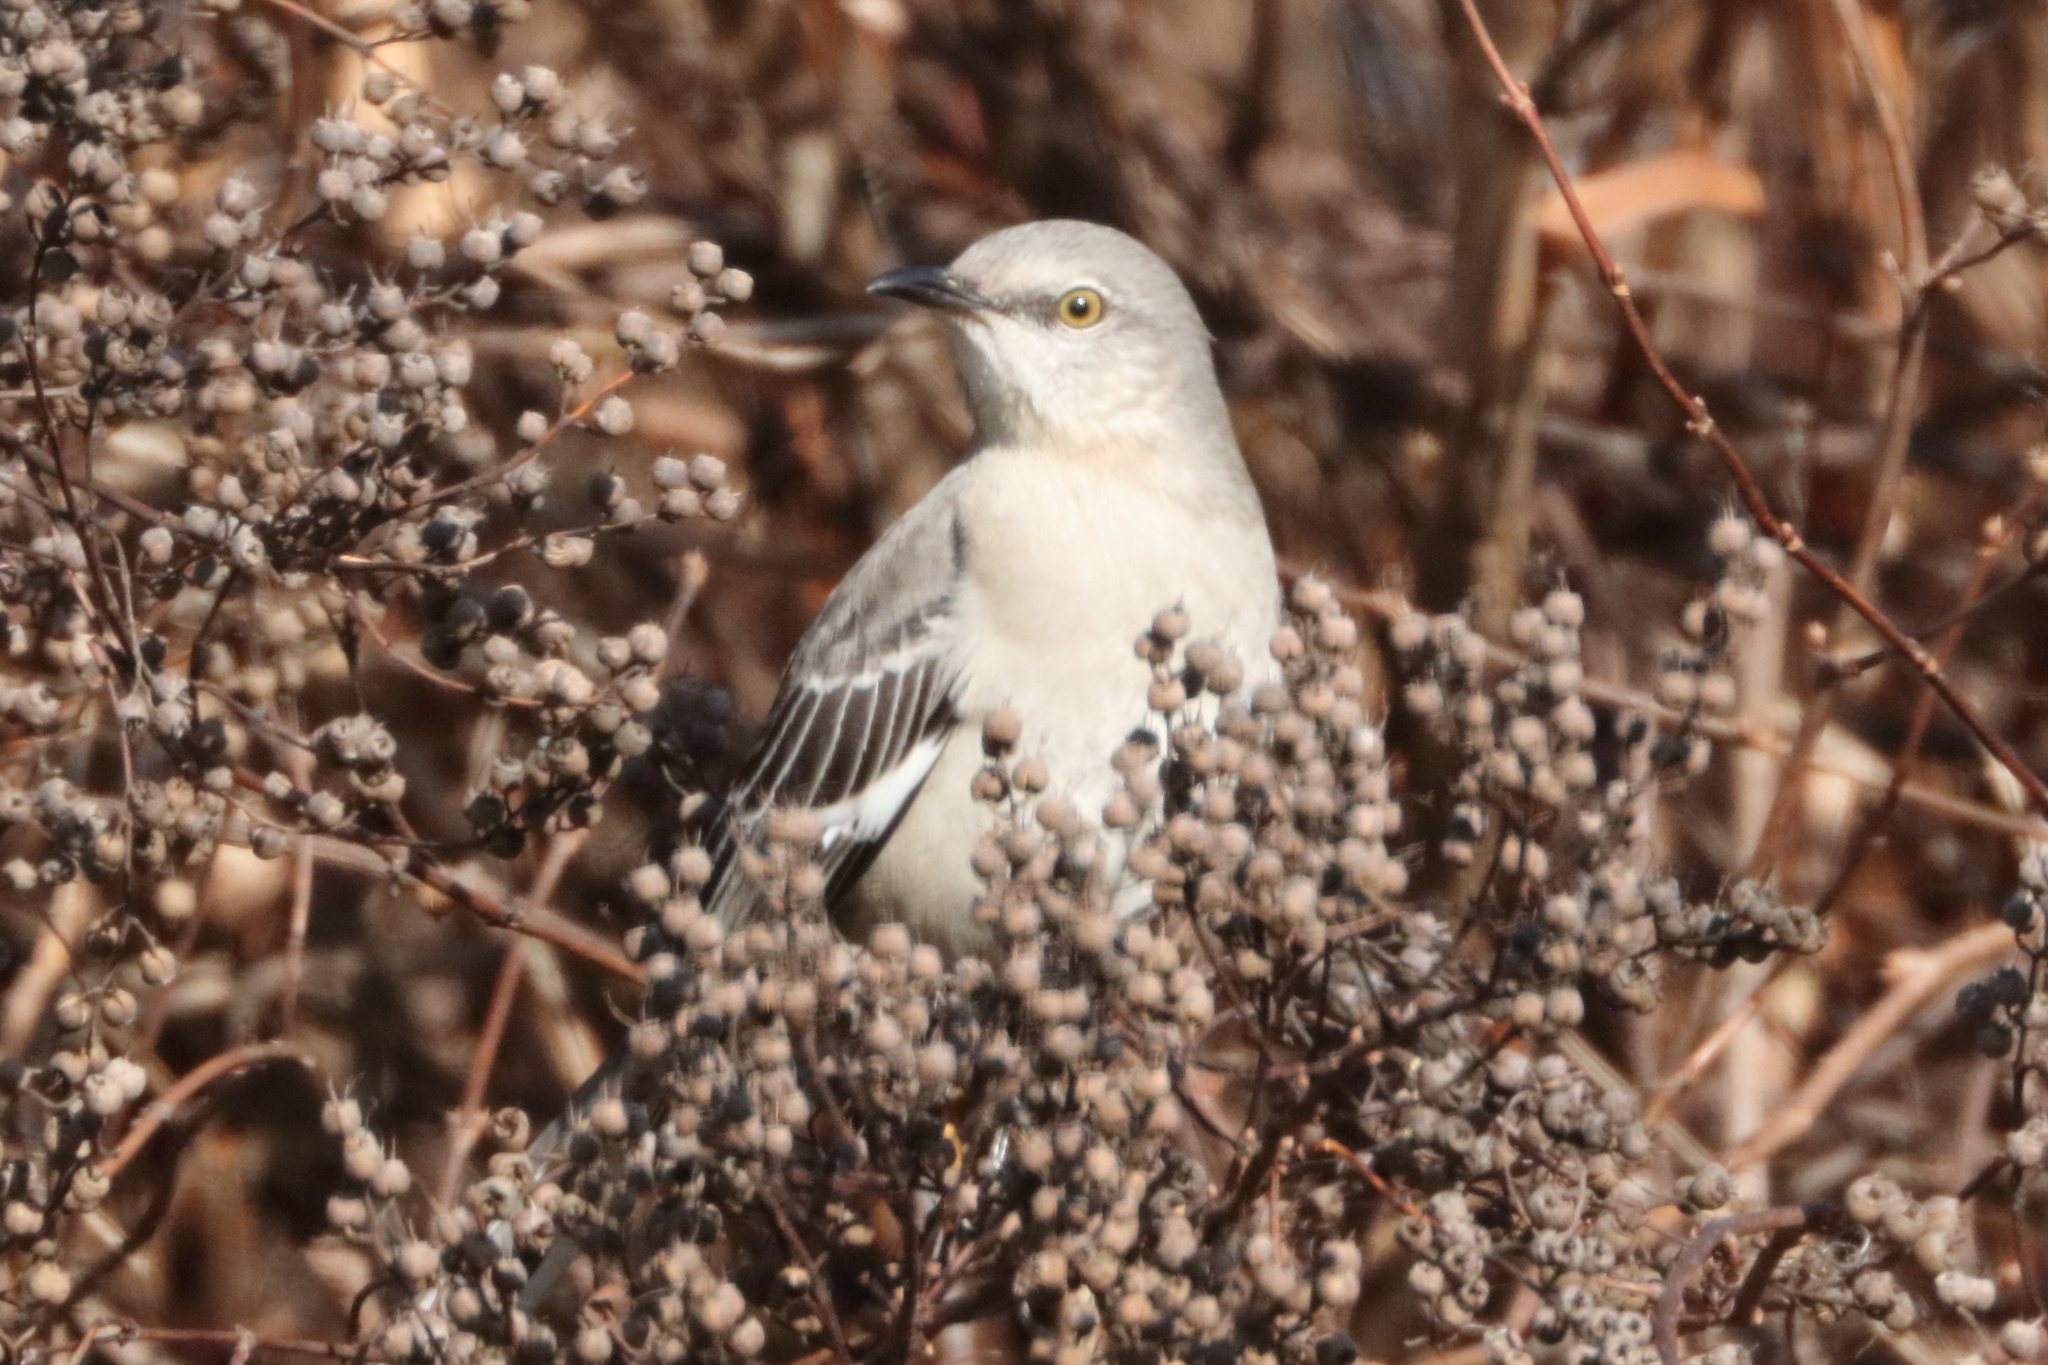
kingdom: Animalia
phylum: Chordata
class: Aves
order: Passeriformes
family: Mimidae
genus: Mimus
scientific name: Mimus polyglottos
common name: Northern mockingbird
